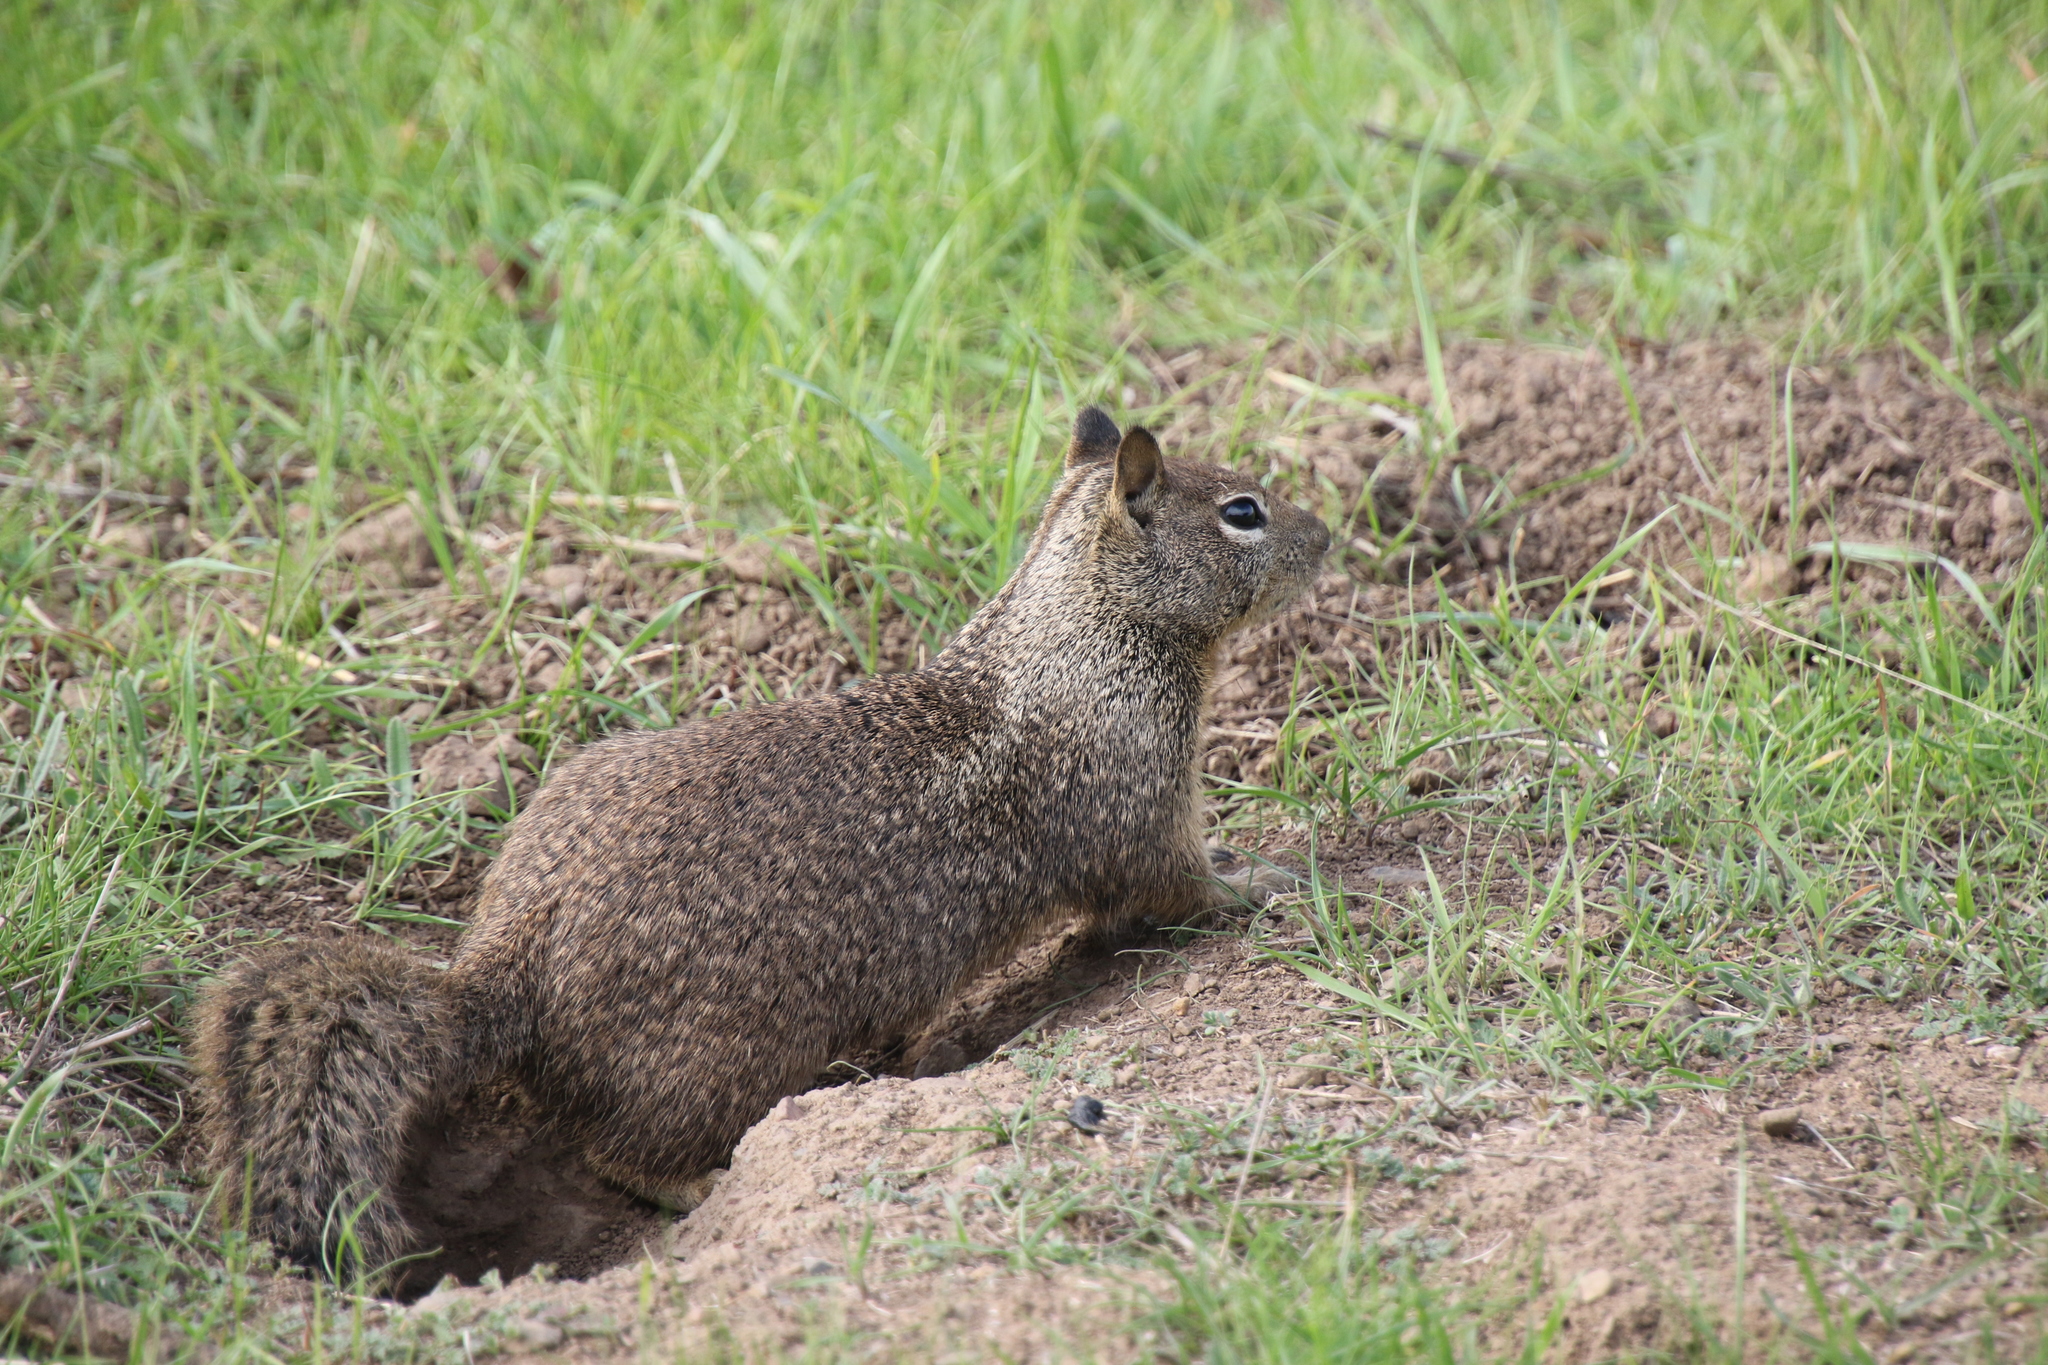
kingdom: Animalia
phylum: Chordata
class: Mammalia
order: Rodentia
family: Sciuridae
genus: Otospermophilus
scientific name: Otospermophilus beecheyi
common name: California ground squirrel
